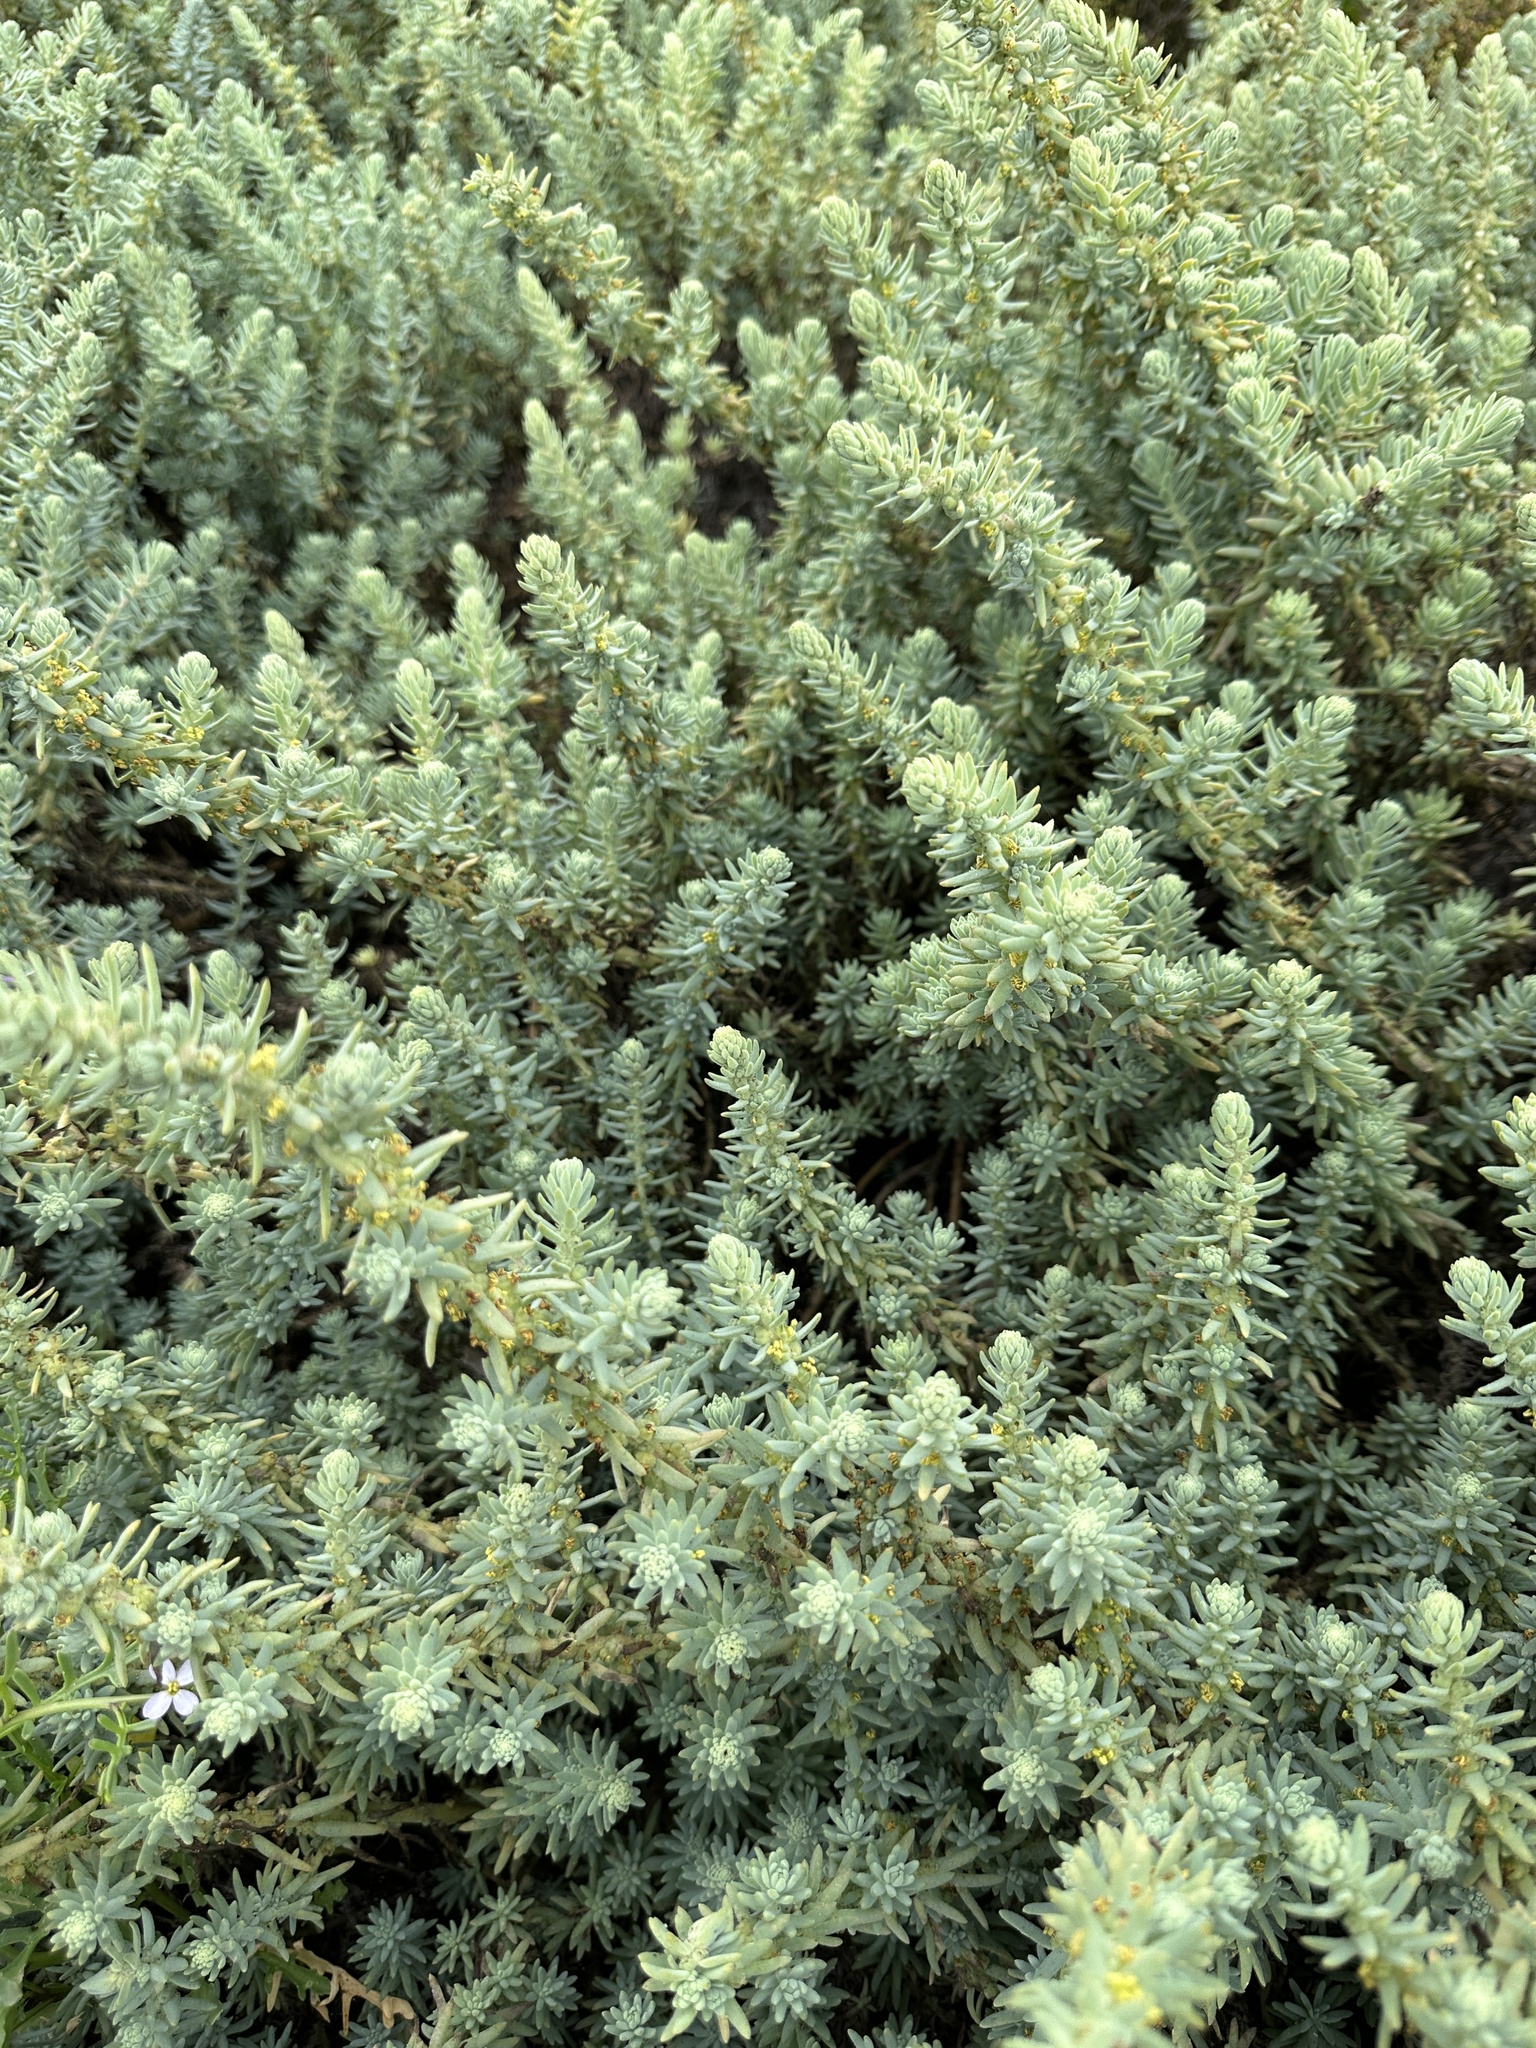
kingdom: Plantae
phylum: Tracheophyta
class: Magnoliopsida
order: Caryophyllales
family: Amaranthaceae
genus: Suaeda
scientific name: Suaeda taxifolia
